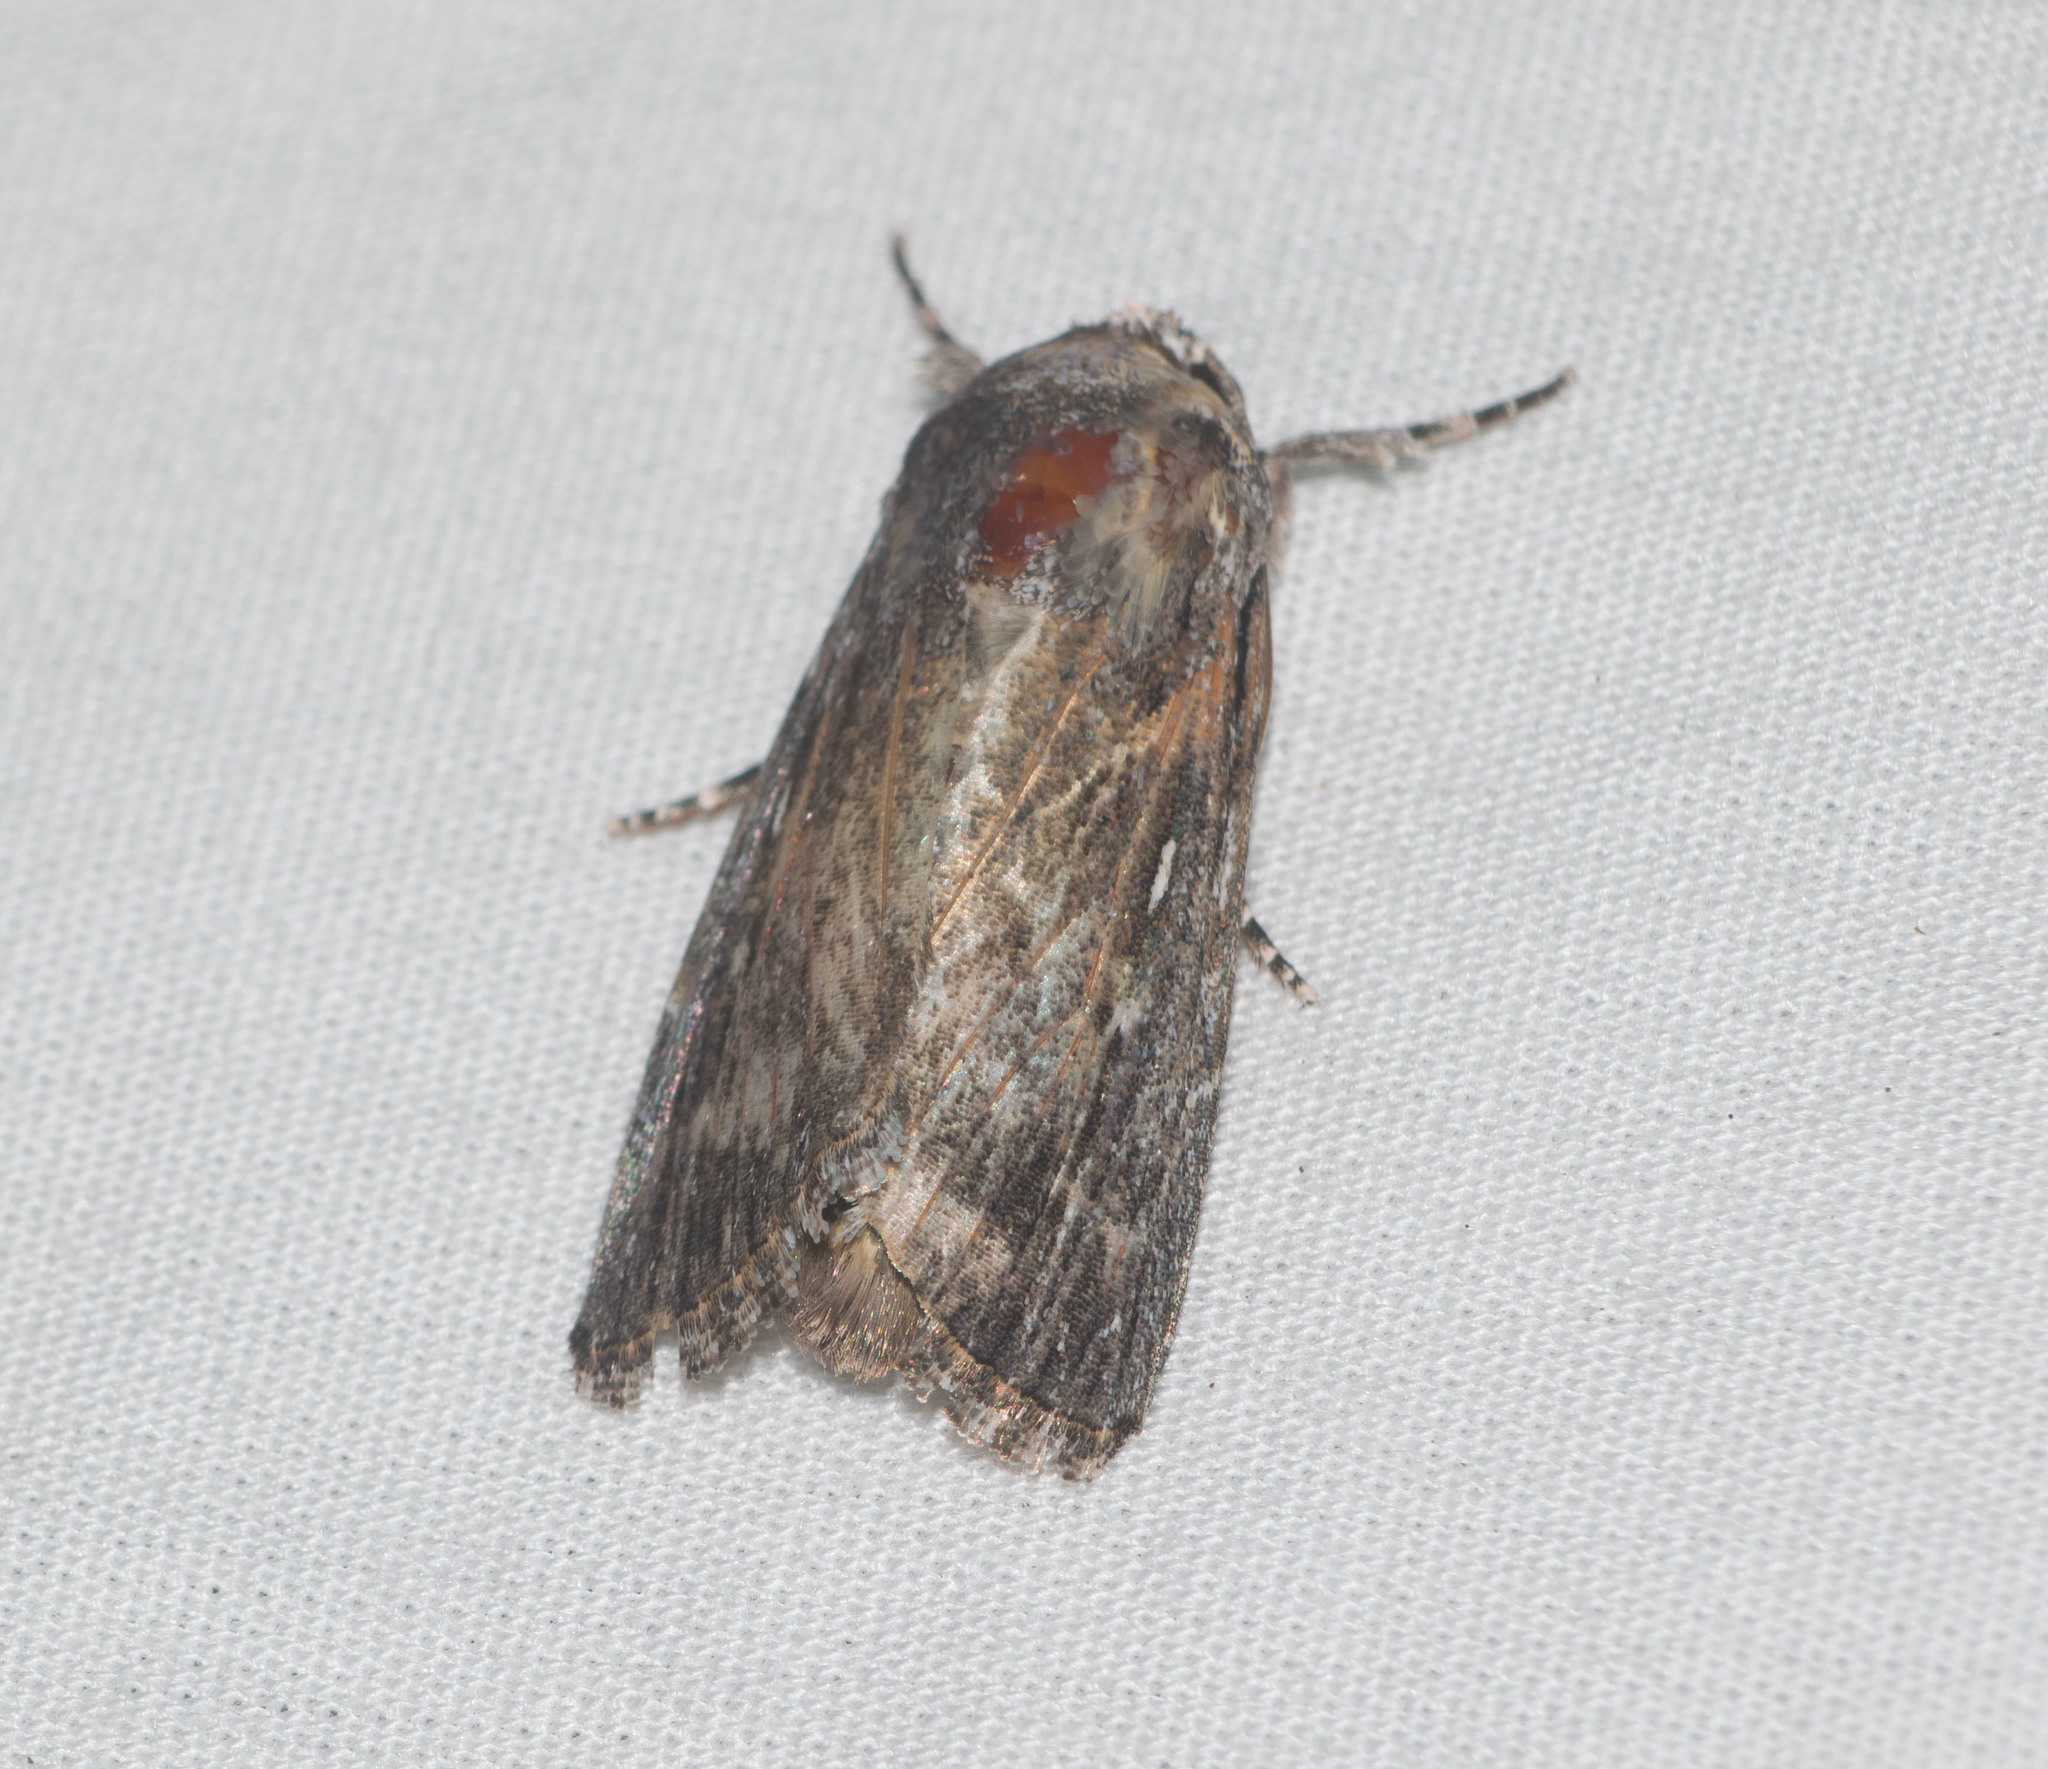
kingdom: Animalia
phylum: Arthropoda
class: Insecta
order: Lepidoptera
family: Noctuidae
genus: Neogalea
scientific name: Neogalea sunia
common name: Lantana stick caterpillar
